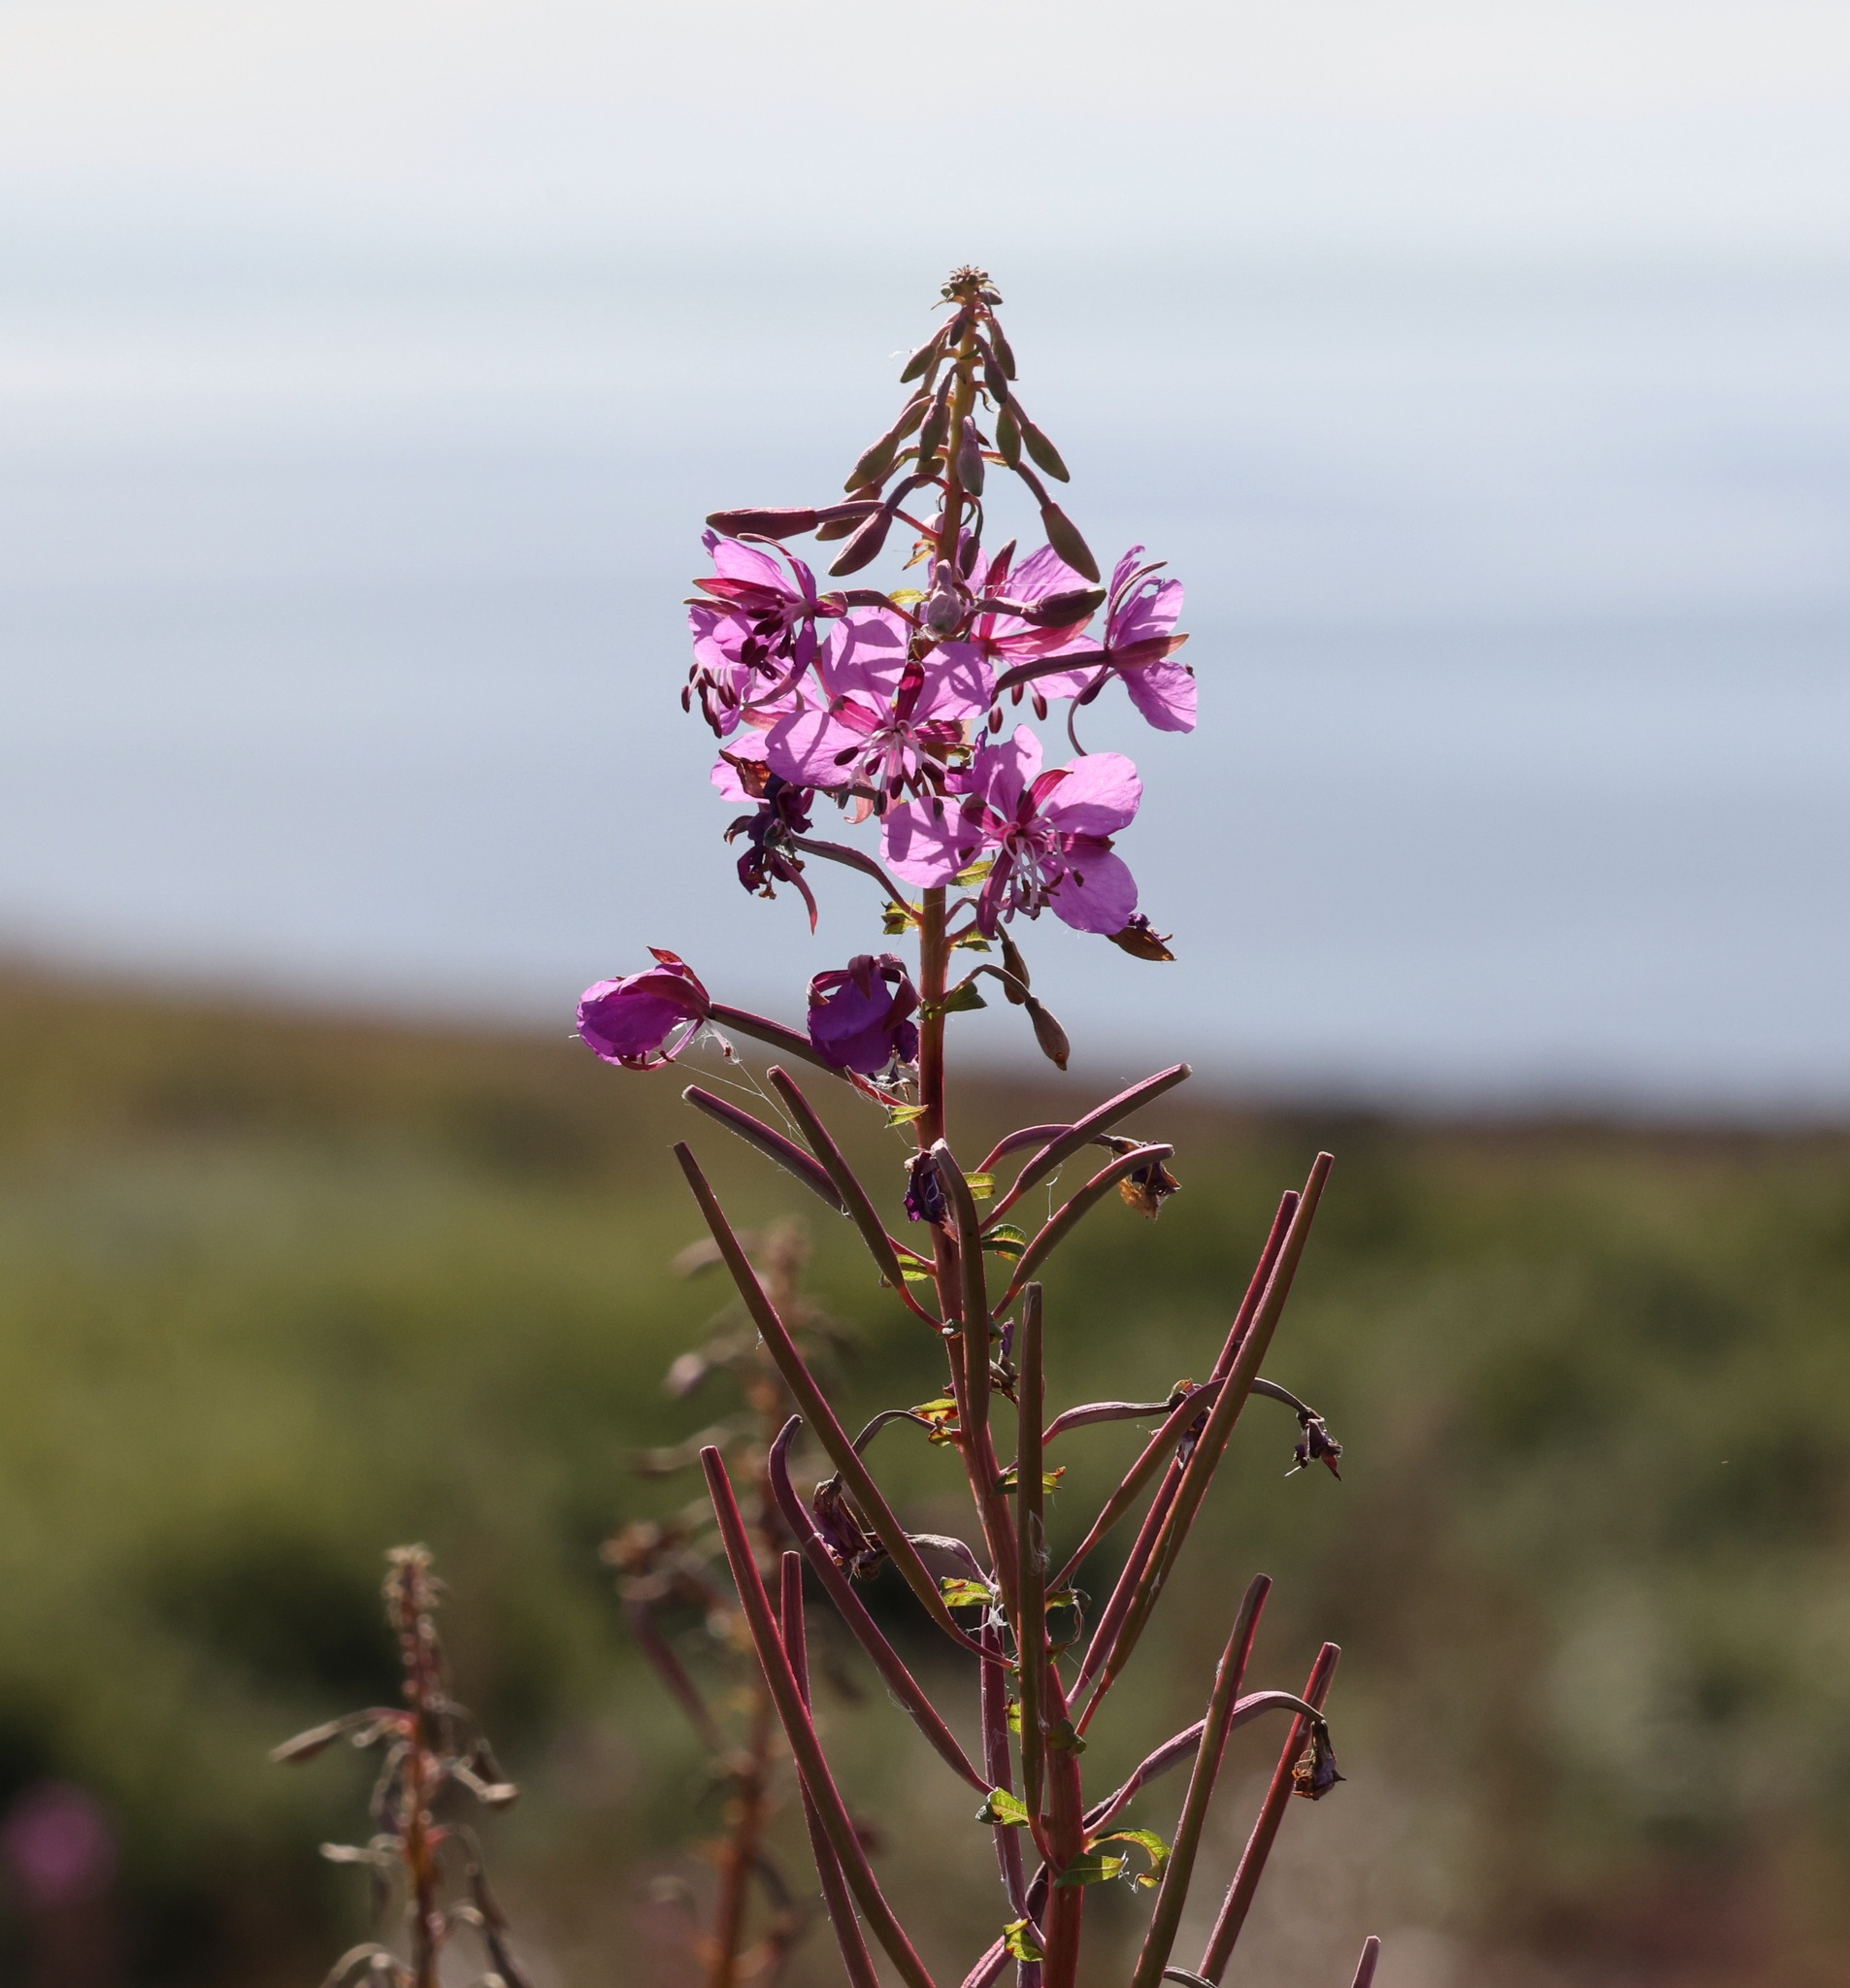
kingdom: Plantae
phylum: Tracheophyta
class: Magnoliopsida
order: Myrtales
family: Onagraceae
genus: Chamaenerion
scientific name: Chamaenerion angustifolium
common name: Fireweed
